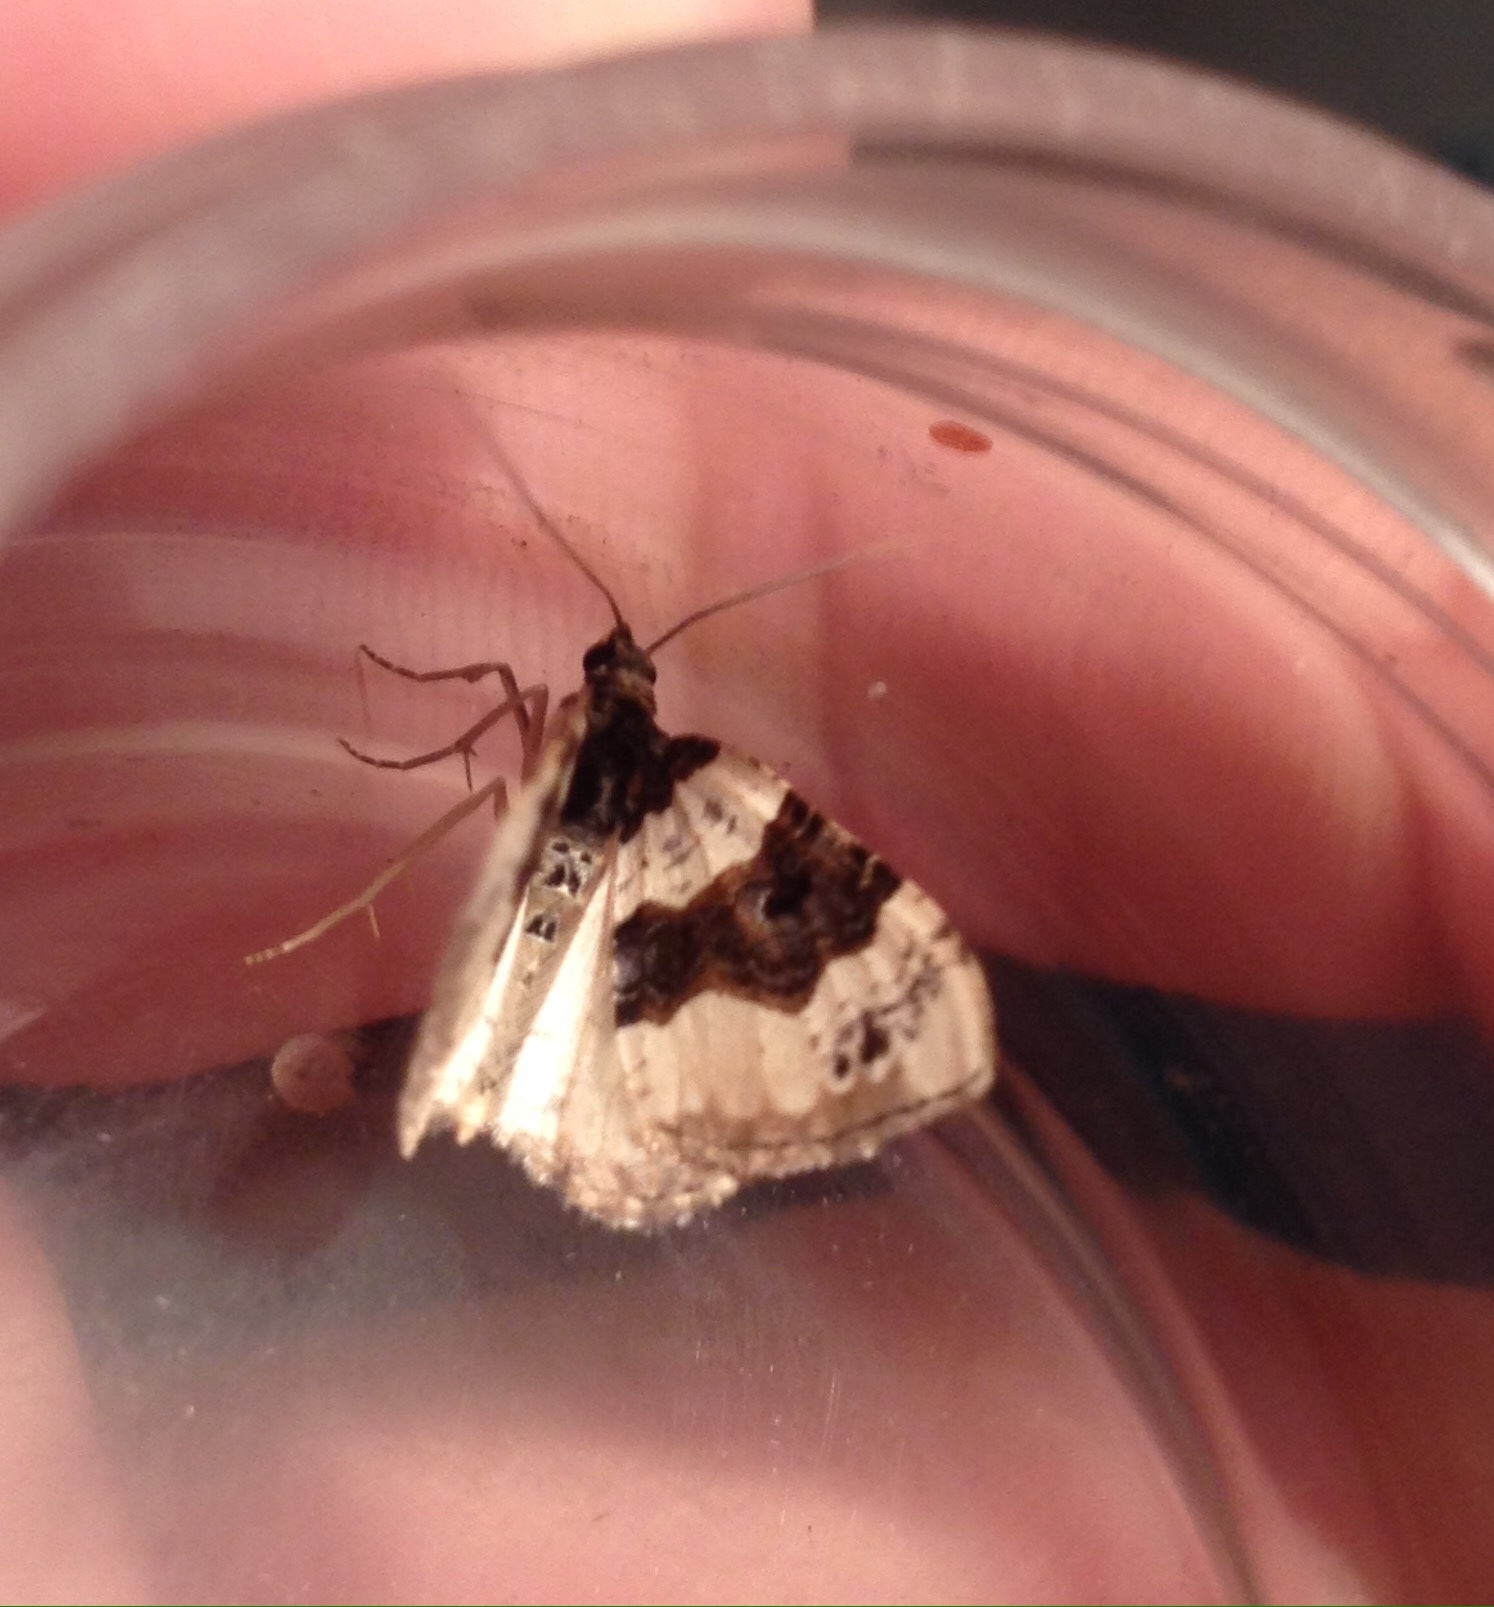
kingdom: Animalia
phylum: Arthropoda
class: Insecta
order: Lepidoptera
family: Geometridae
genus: Cosmorhoe
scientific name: Cosmorhoe ocellata
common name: Purple bar
